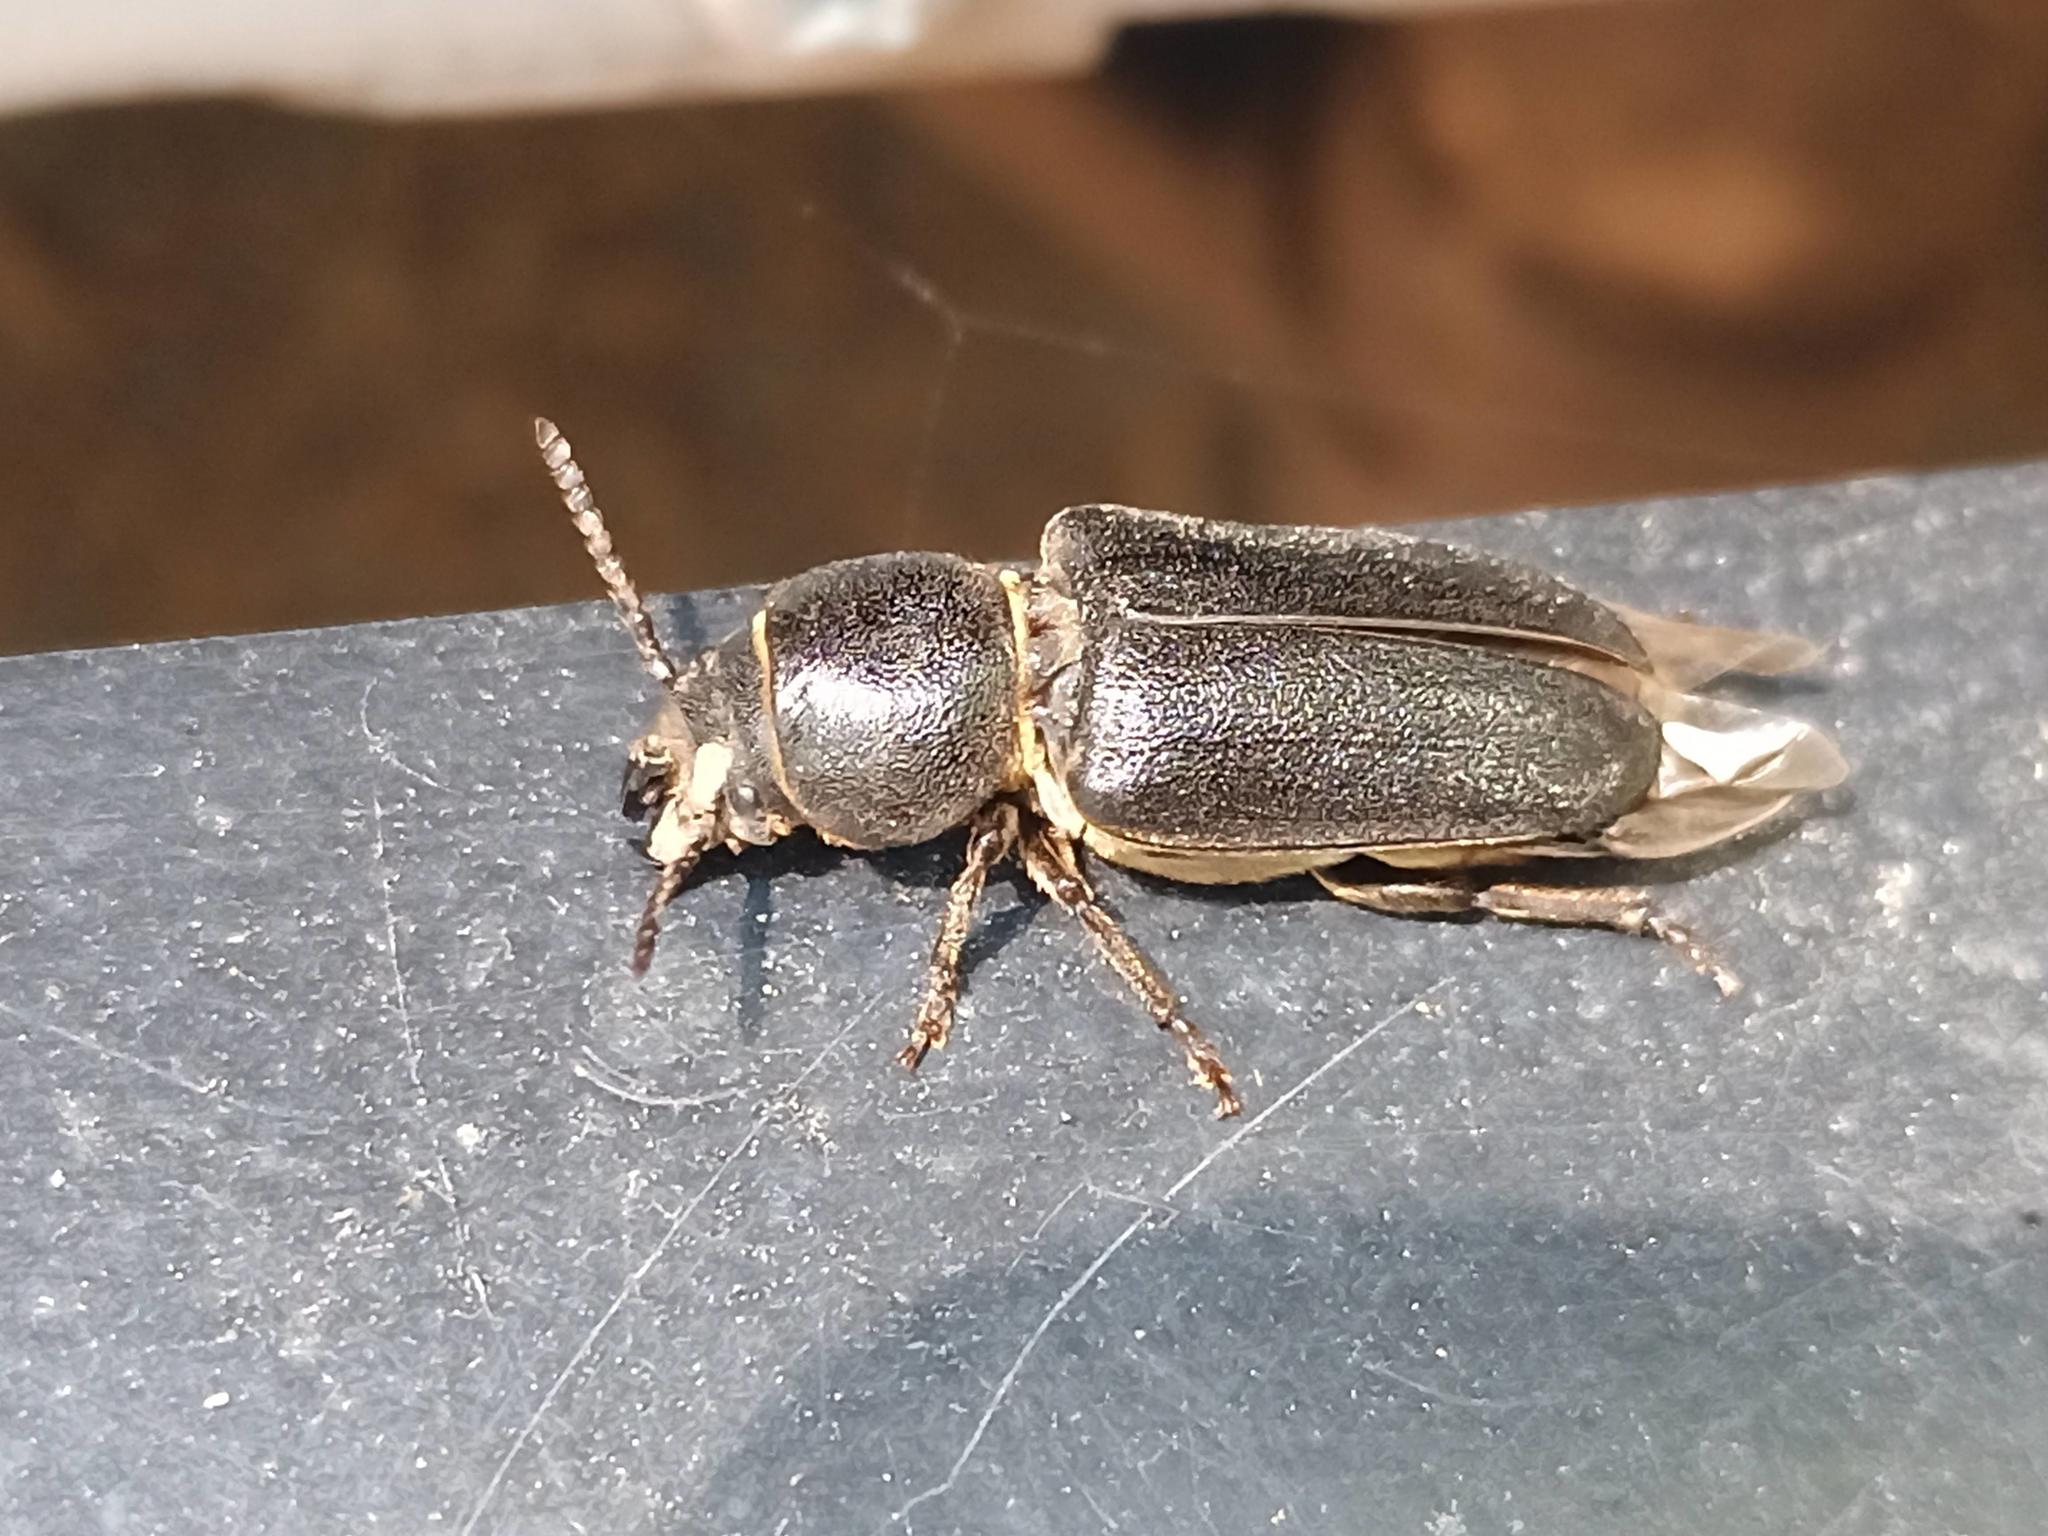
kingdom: Animalia
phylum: Arthropoda
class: Insecta
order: Coleoptera
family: Cerambycidae
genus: Spondylis
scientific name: Spondylis buprestoides
